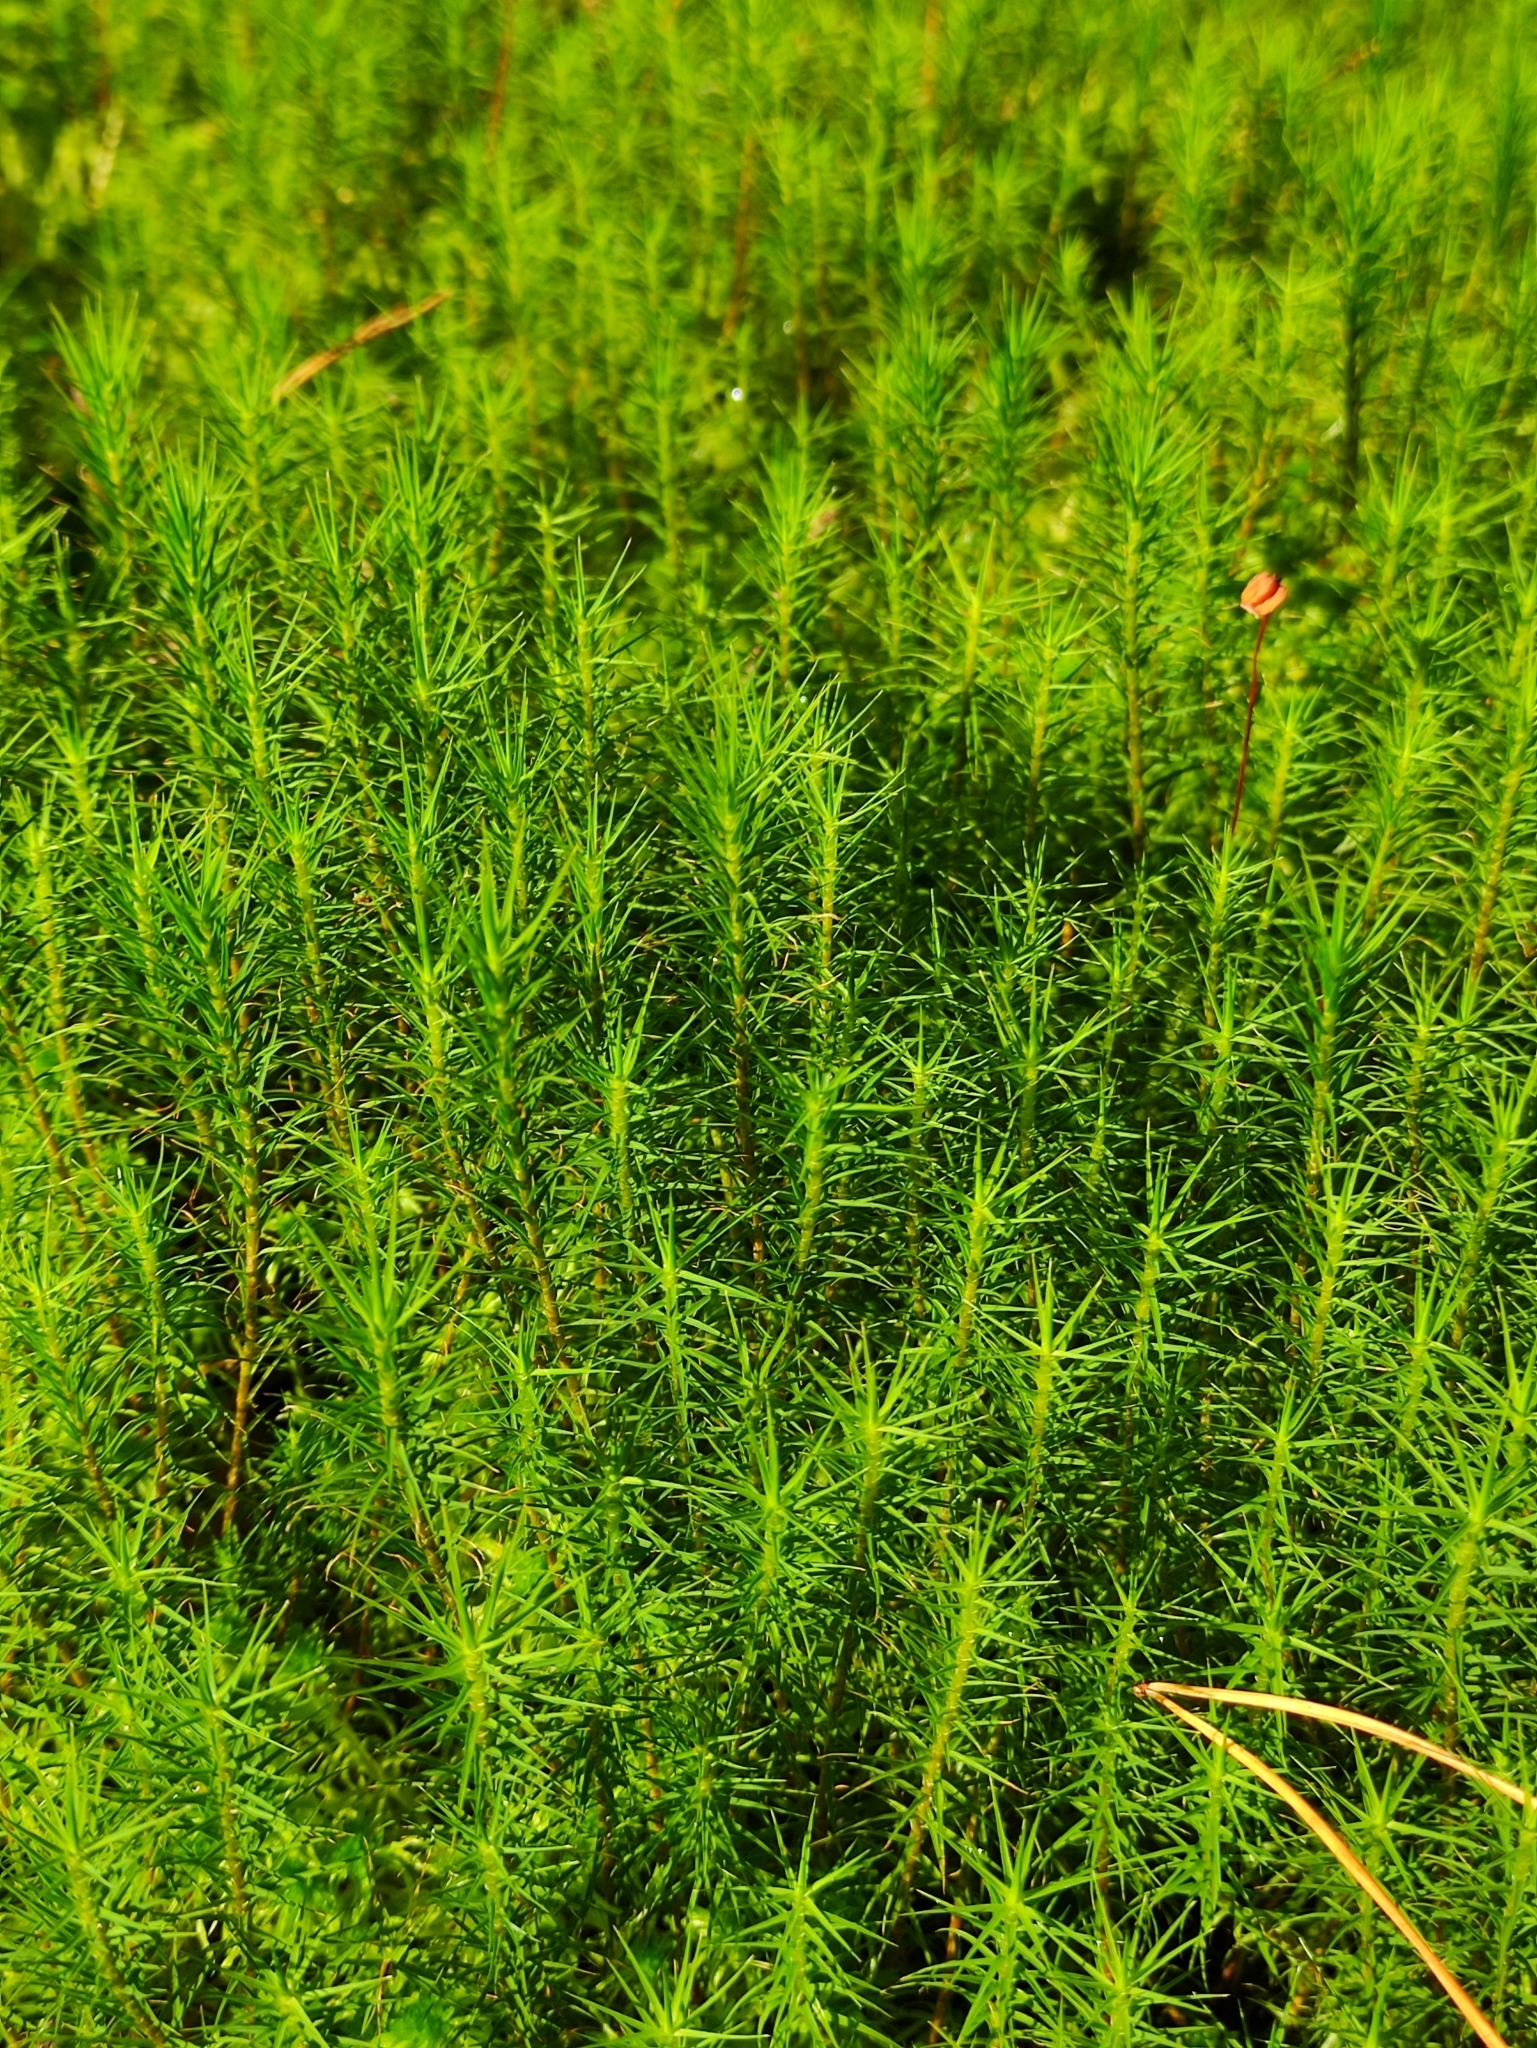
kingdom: Plantae
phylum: Bryophyta
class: Polytrichopsida
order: Polytrichales
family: Polytrichaceae
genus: Polytrichum
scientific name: Polytrichum commune
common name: Common haircap
